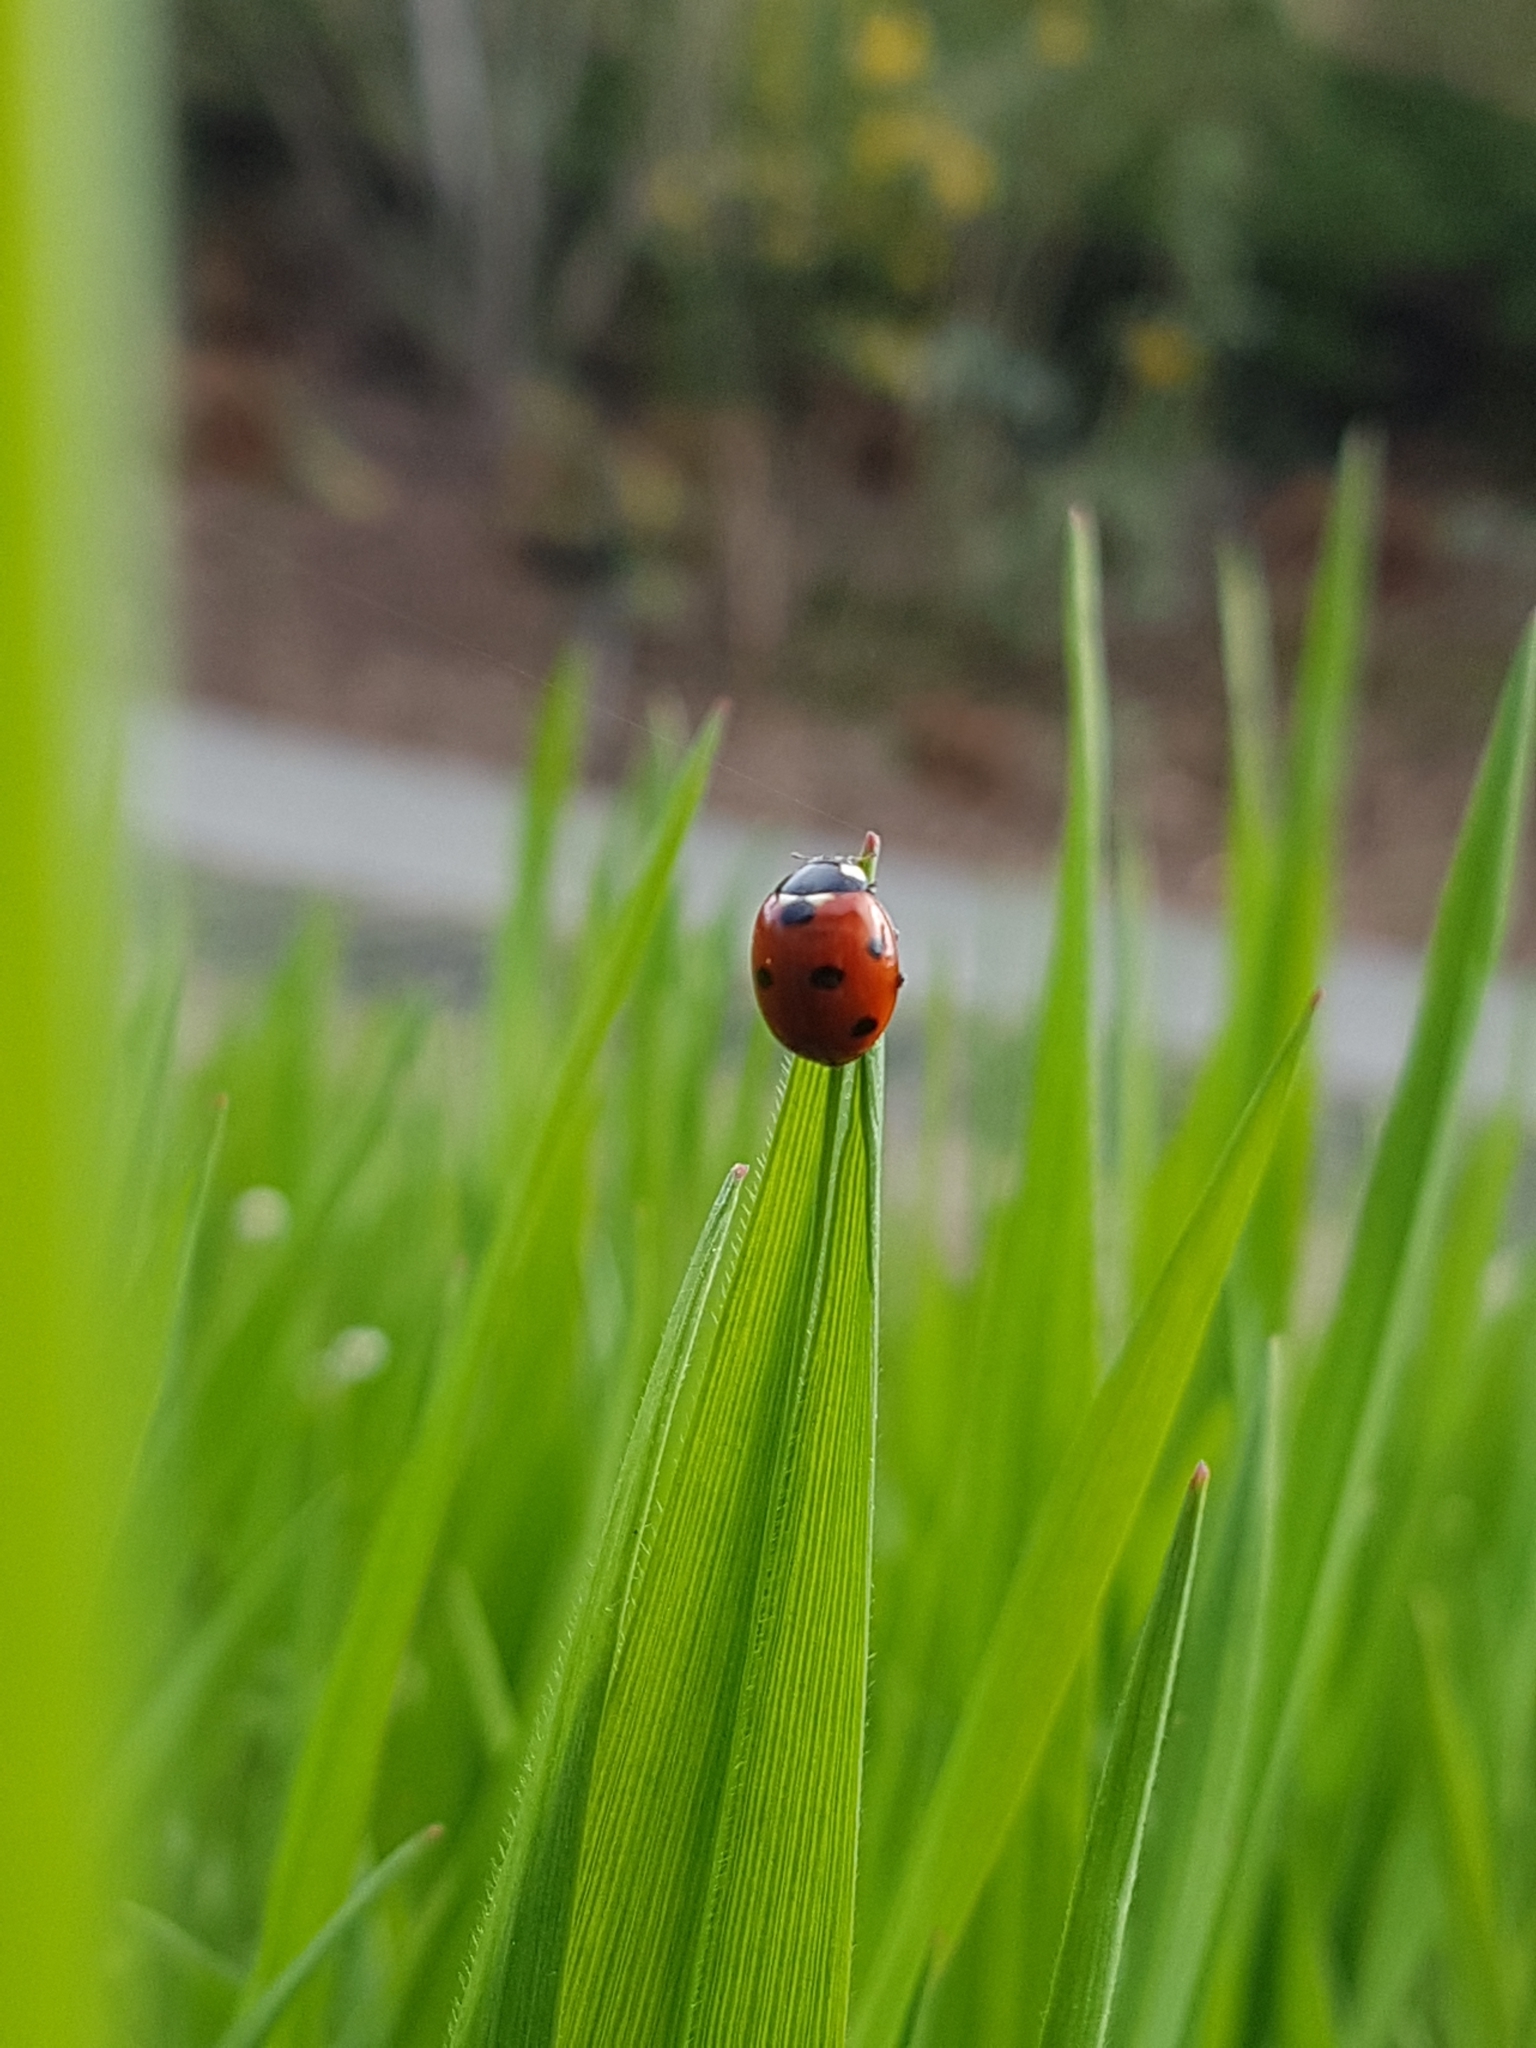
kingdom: Animalia
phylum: Arthropoda
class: Insecta
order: Coleoptera
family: Coccinellidae
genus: Coccinella
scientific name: Coccinella septempunctata
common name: Sevenspotted lady beetle
